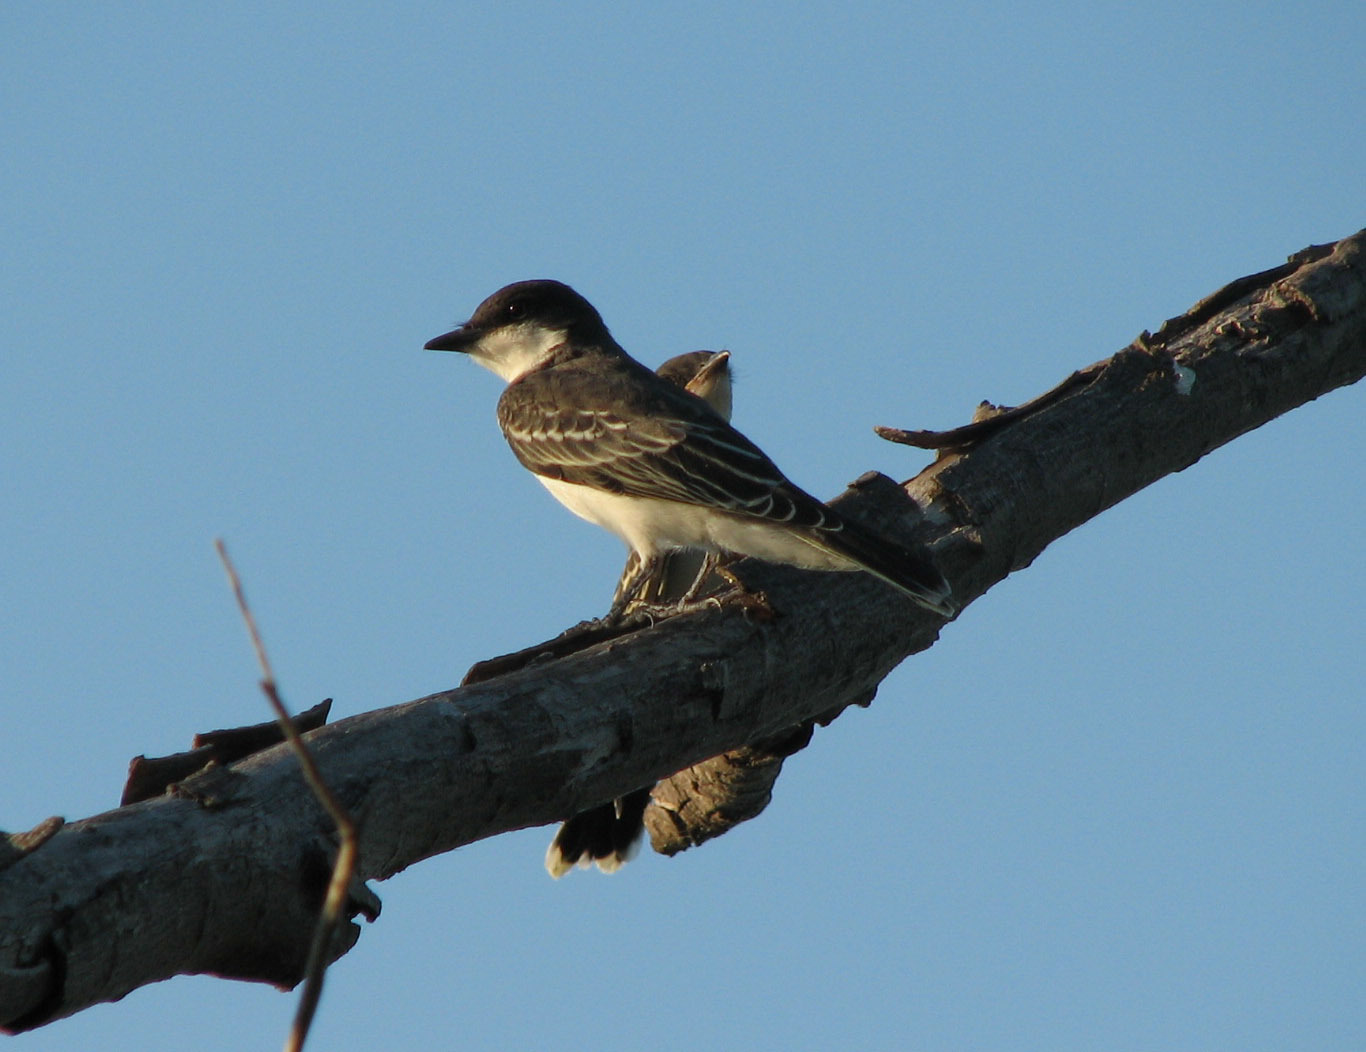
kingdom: Animalia
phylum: Chordata
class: Aves
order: Passeriformes
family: Tyrannidae
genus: Tyrannus
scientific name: Tyrannus tyrannus
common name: Eastern kingbird
